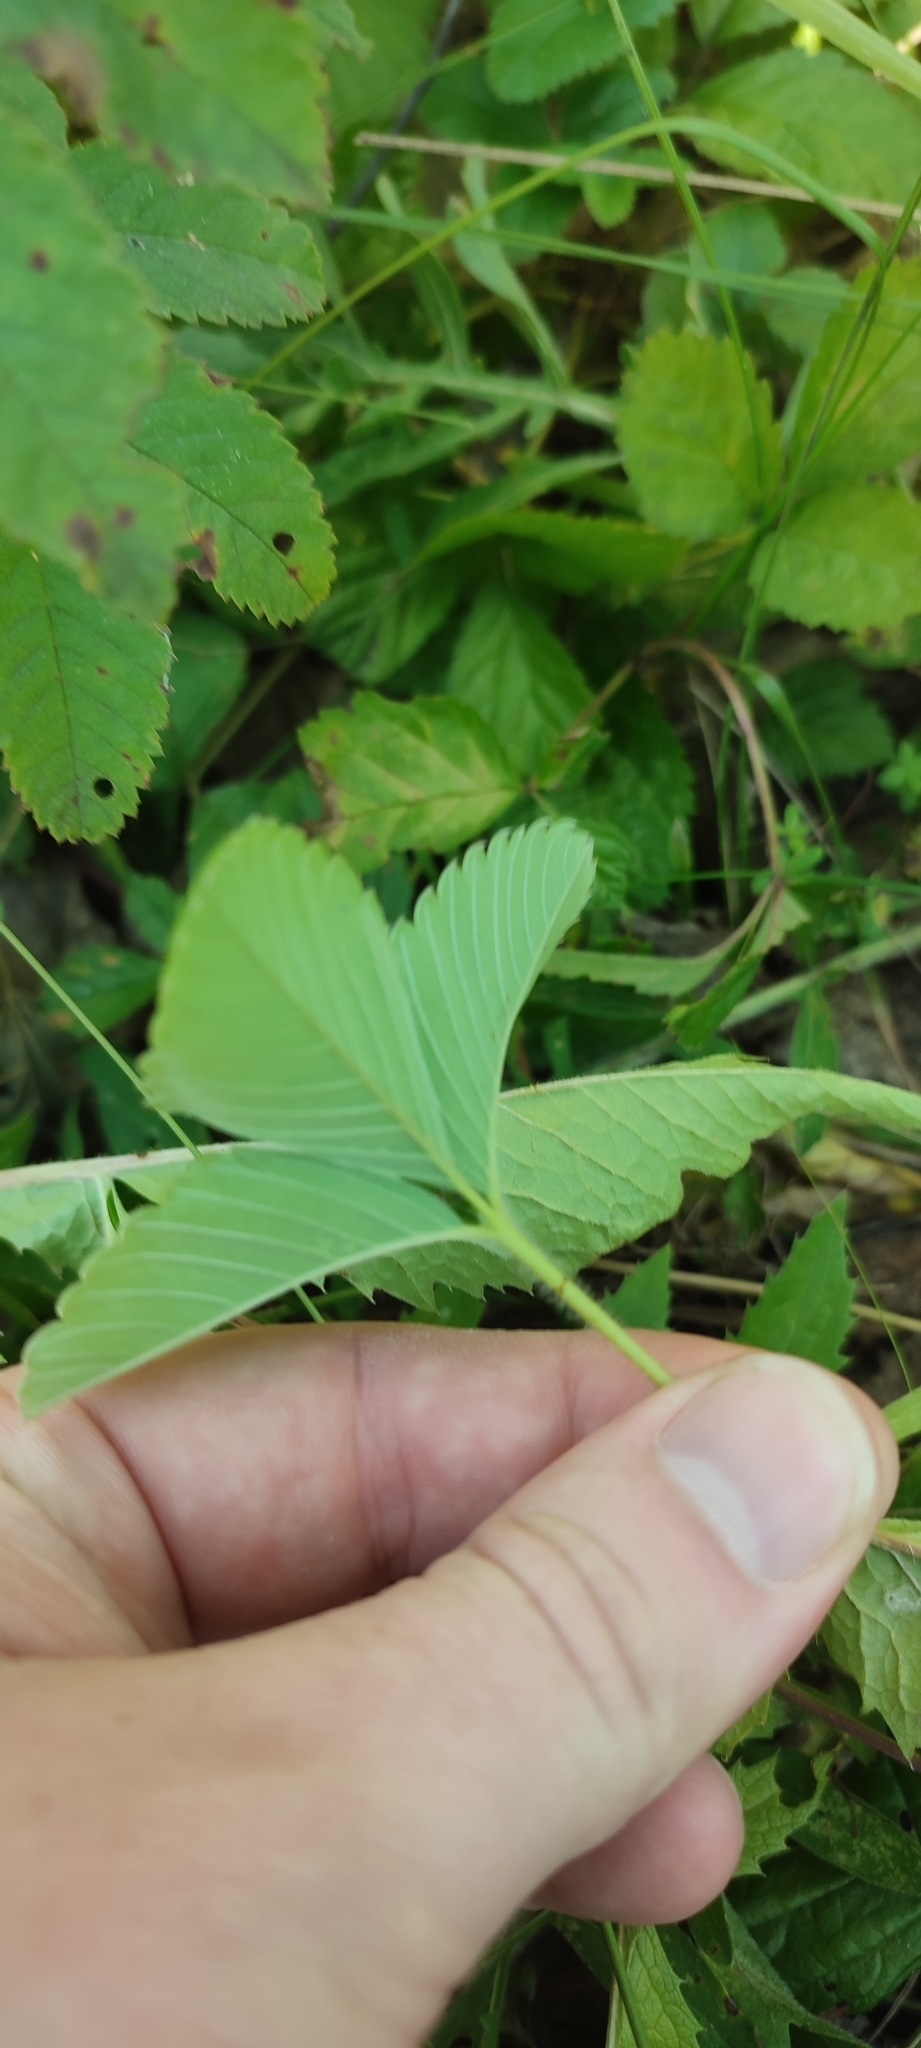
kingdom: Plantae
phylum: Tracheophyta
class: Magnoliopsida
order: Rosales
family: Rosaceae
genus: Fragaria
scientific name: Fragaria viridis
